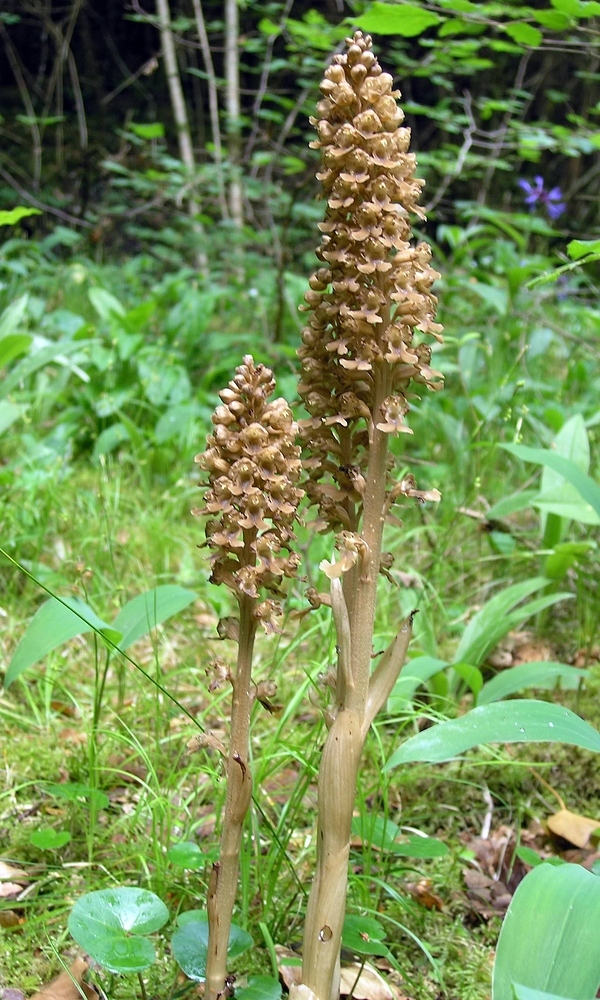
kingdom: Plantae
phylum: Tracheophyta
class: Liliopsida
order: Asparagales
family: Orchidaceae
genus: Neottia
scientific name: Neottia nidus-avis
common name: Bird's-nest orchid
